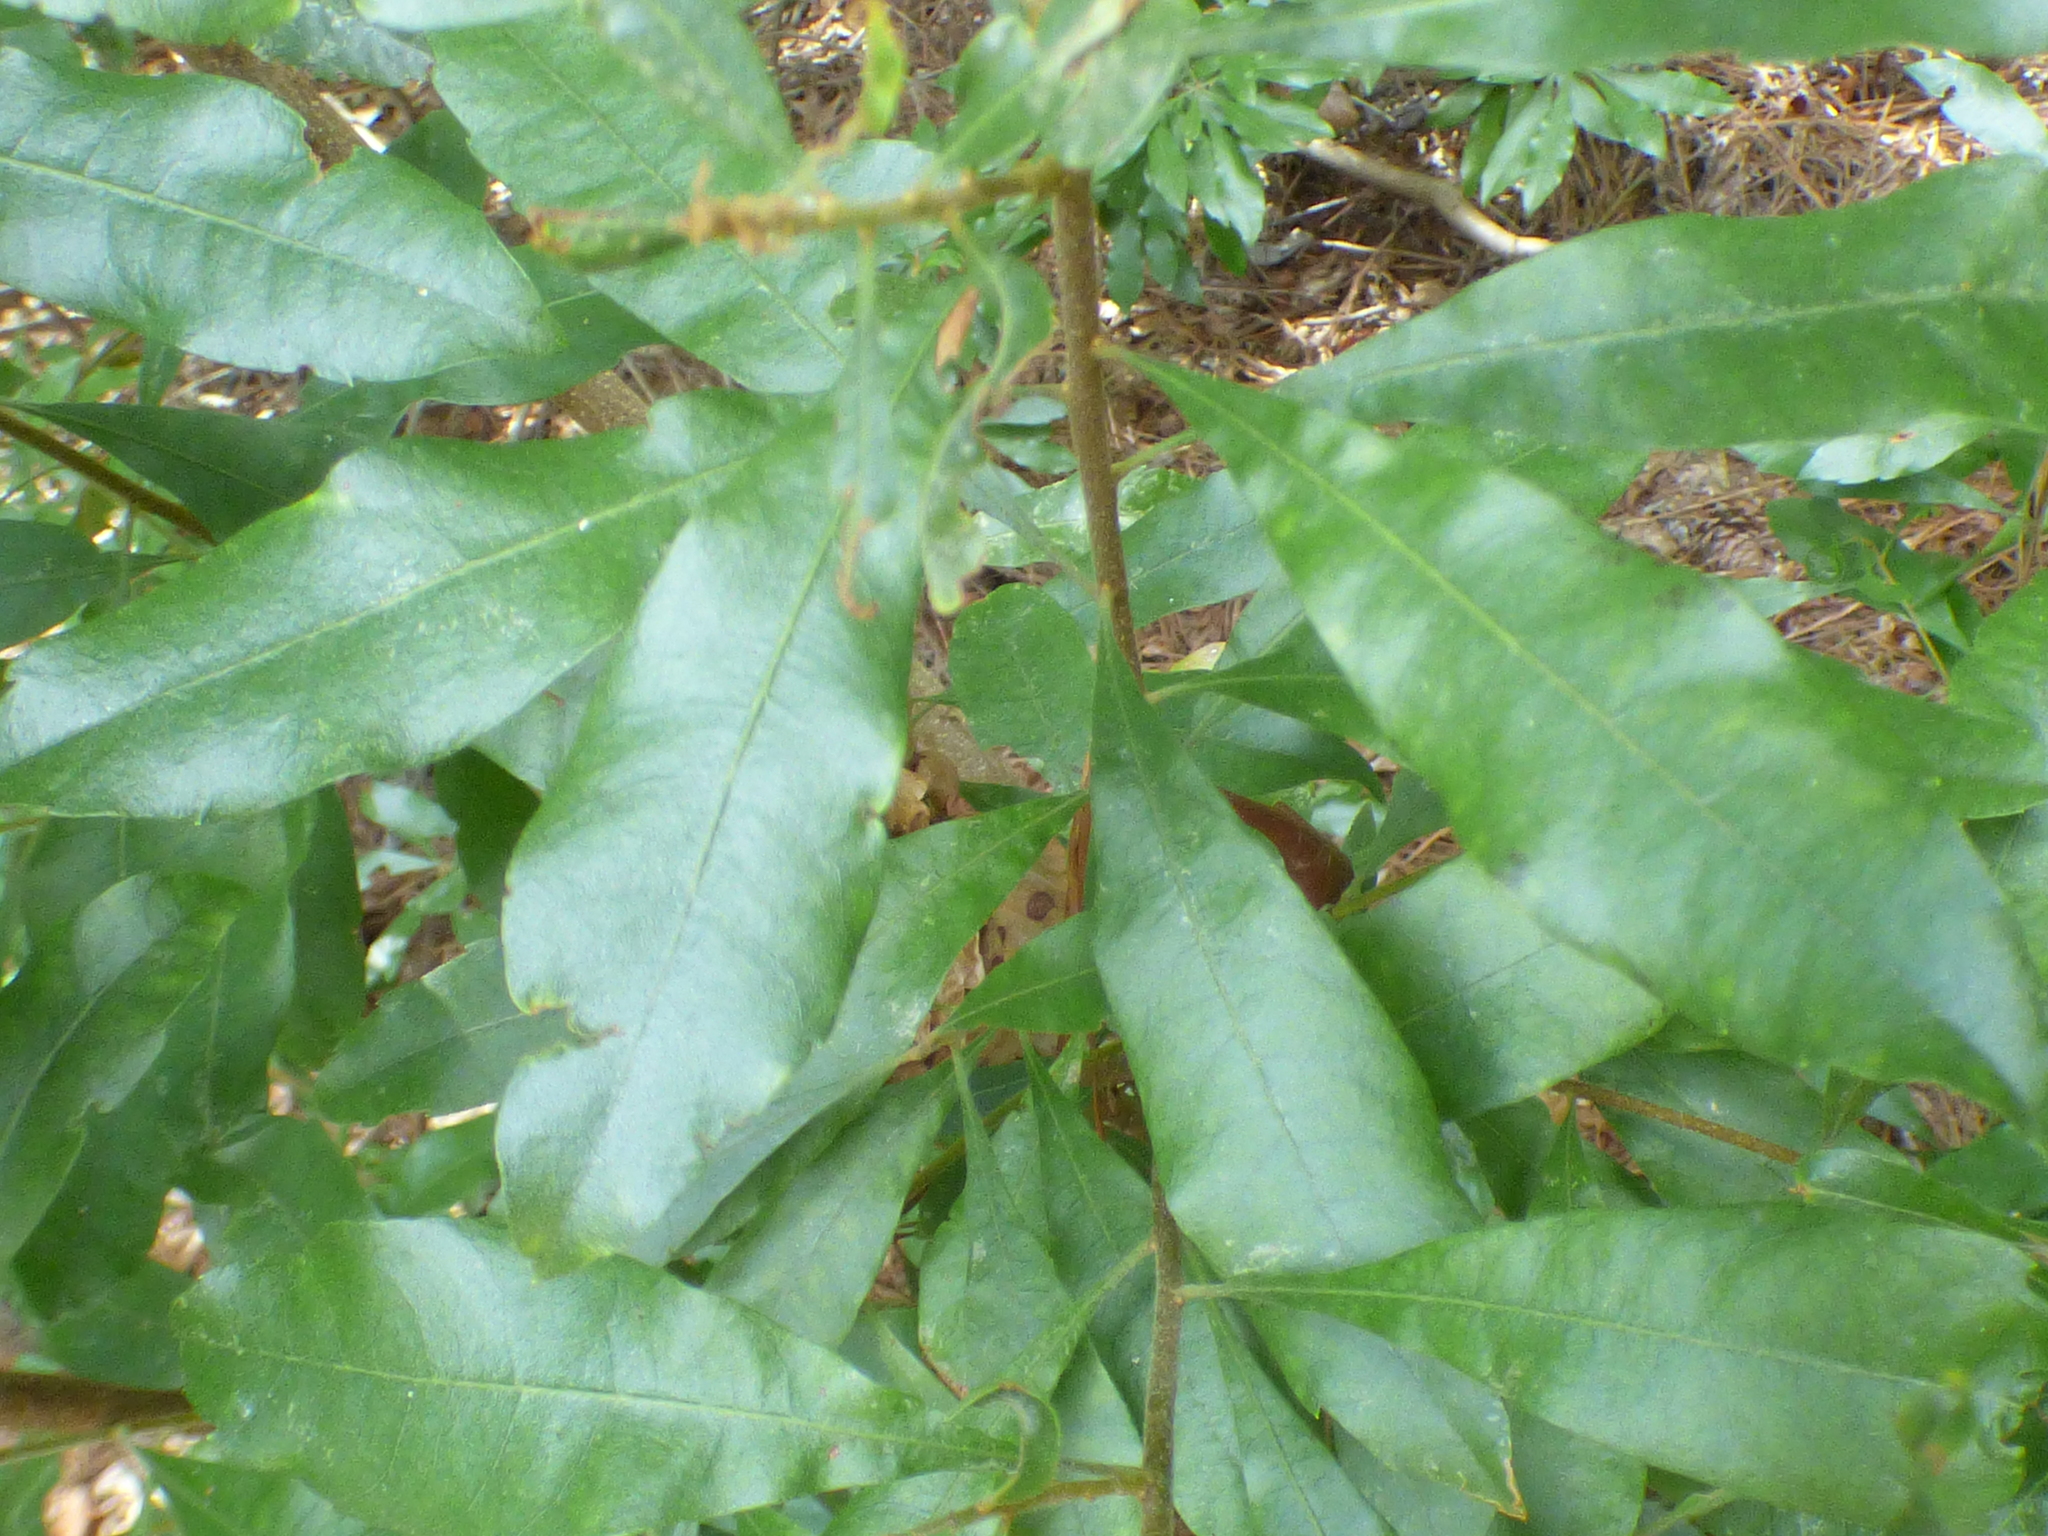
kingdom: Plantae
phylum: Tracheophyta
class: Magnoliopsida
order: Fagales
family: Myricaceae
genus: Morella
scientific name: Morella cerifera
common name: Wax myrtle
